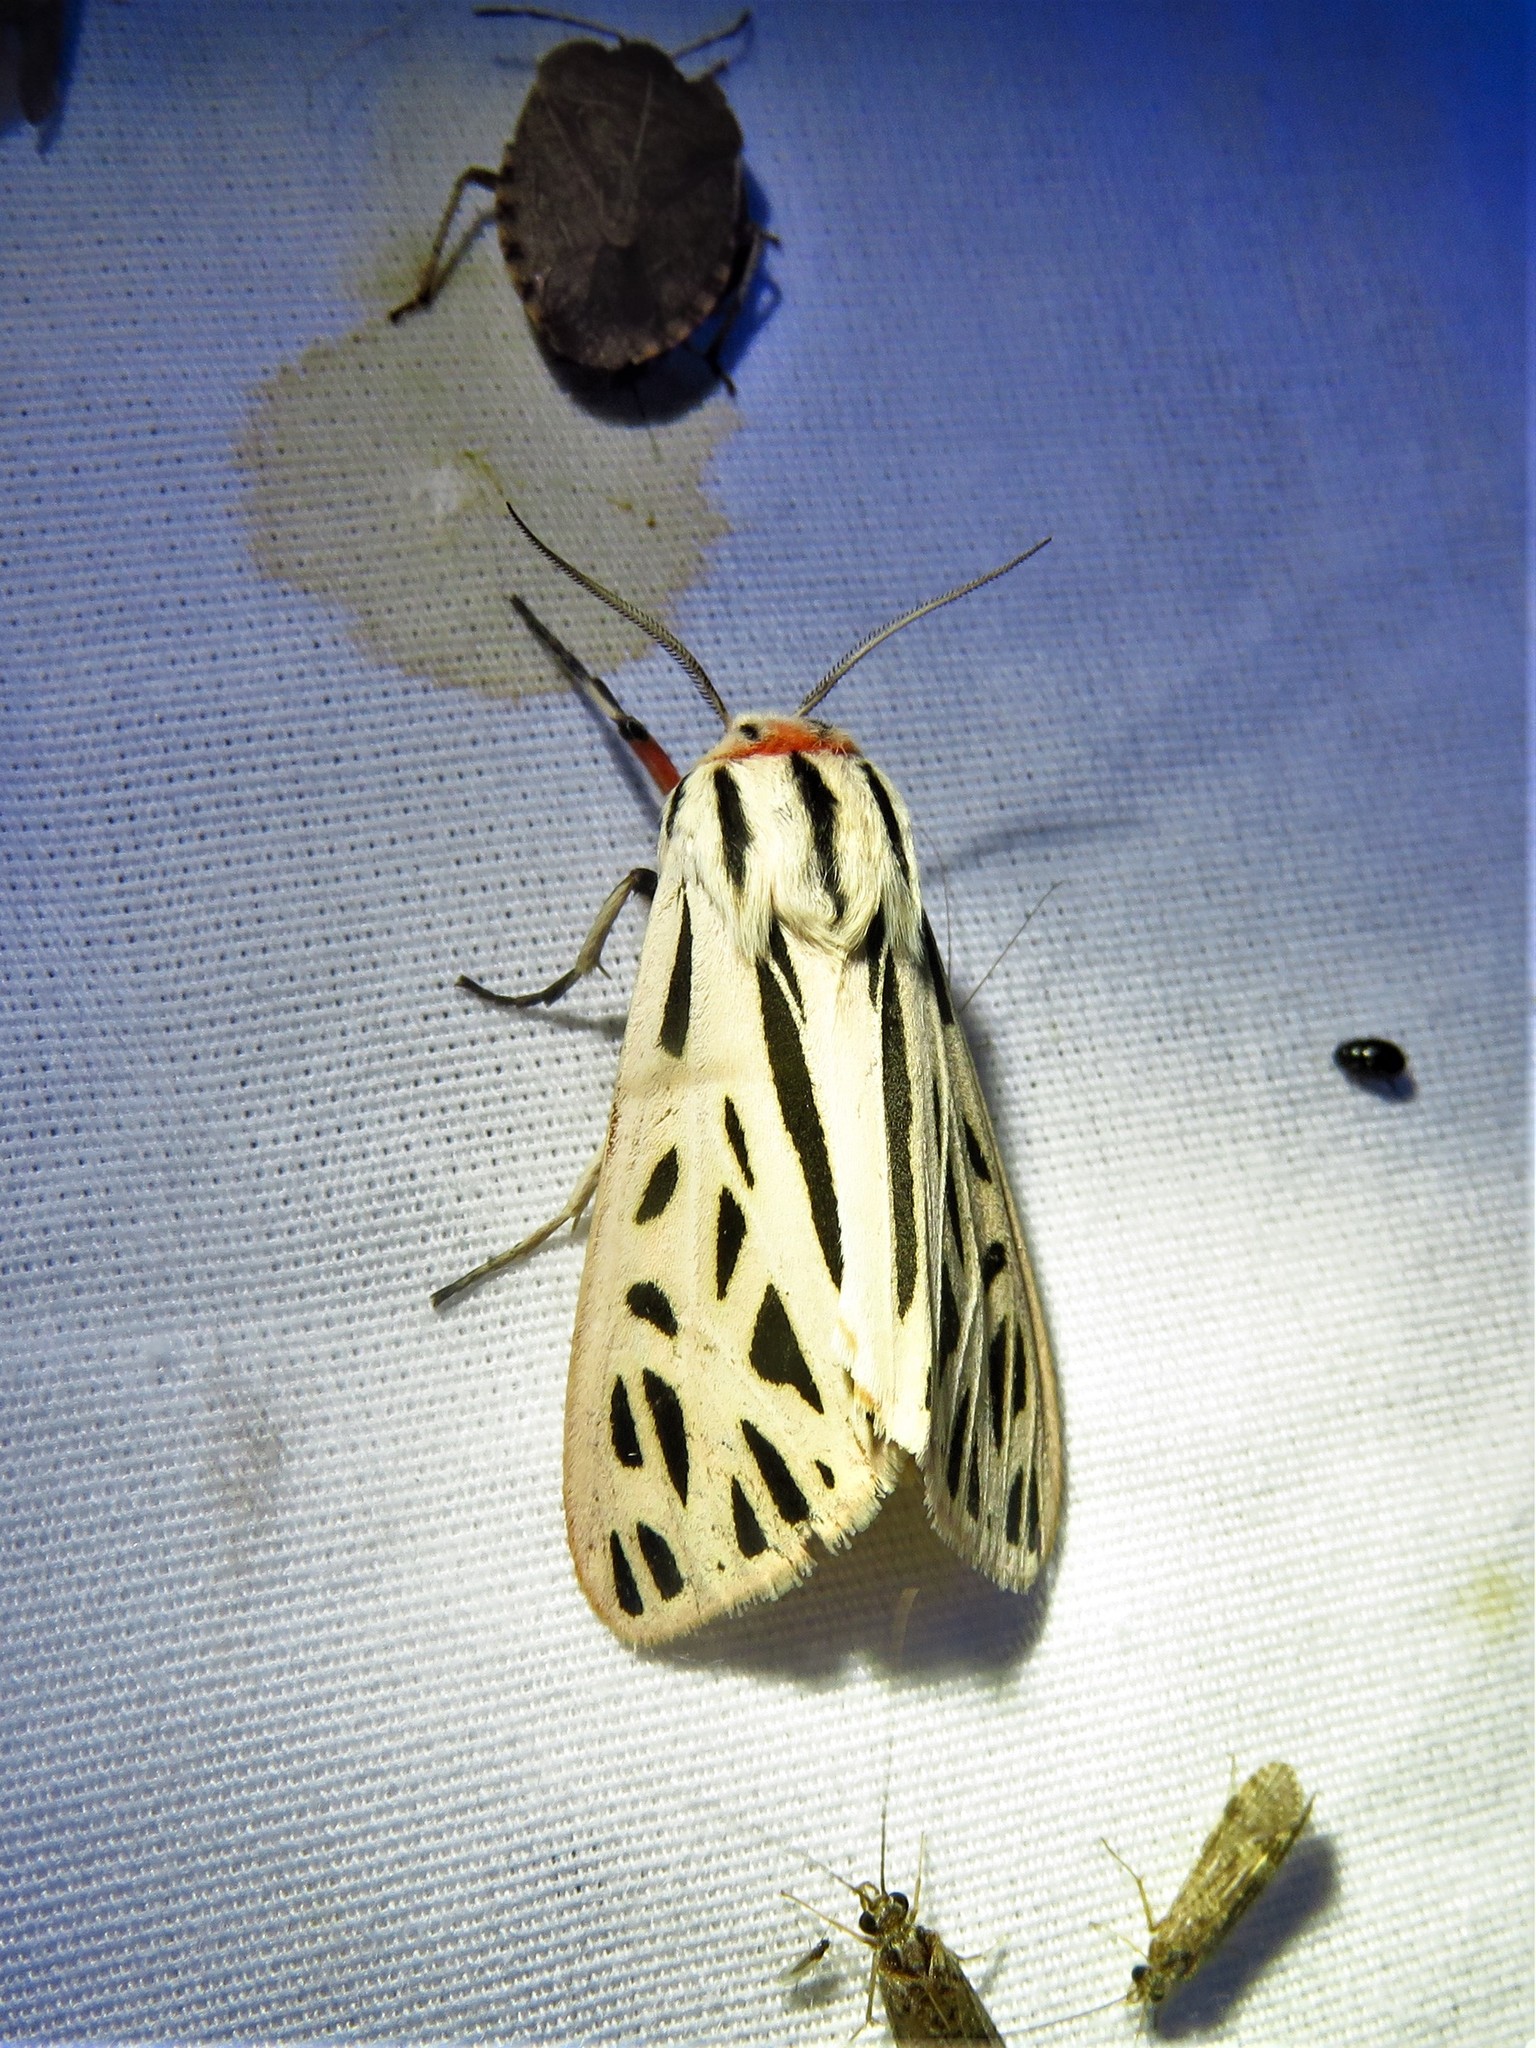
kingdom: Animalia
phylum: Arthropoda
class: Insecta
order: Lepidoptera
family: Erebidae
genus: Apantesis
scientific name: Apantesis arge
